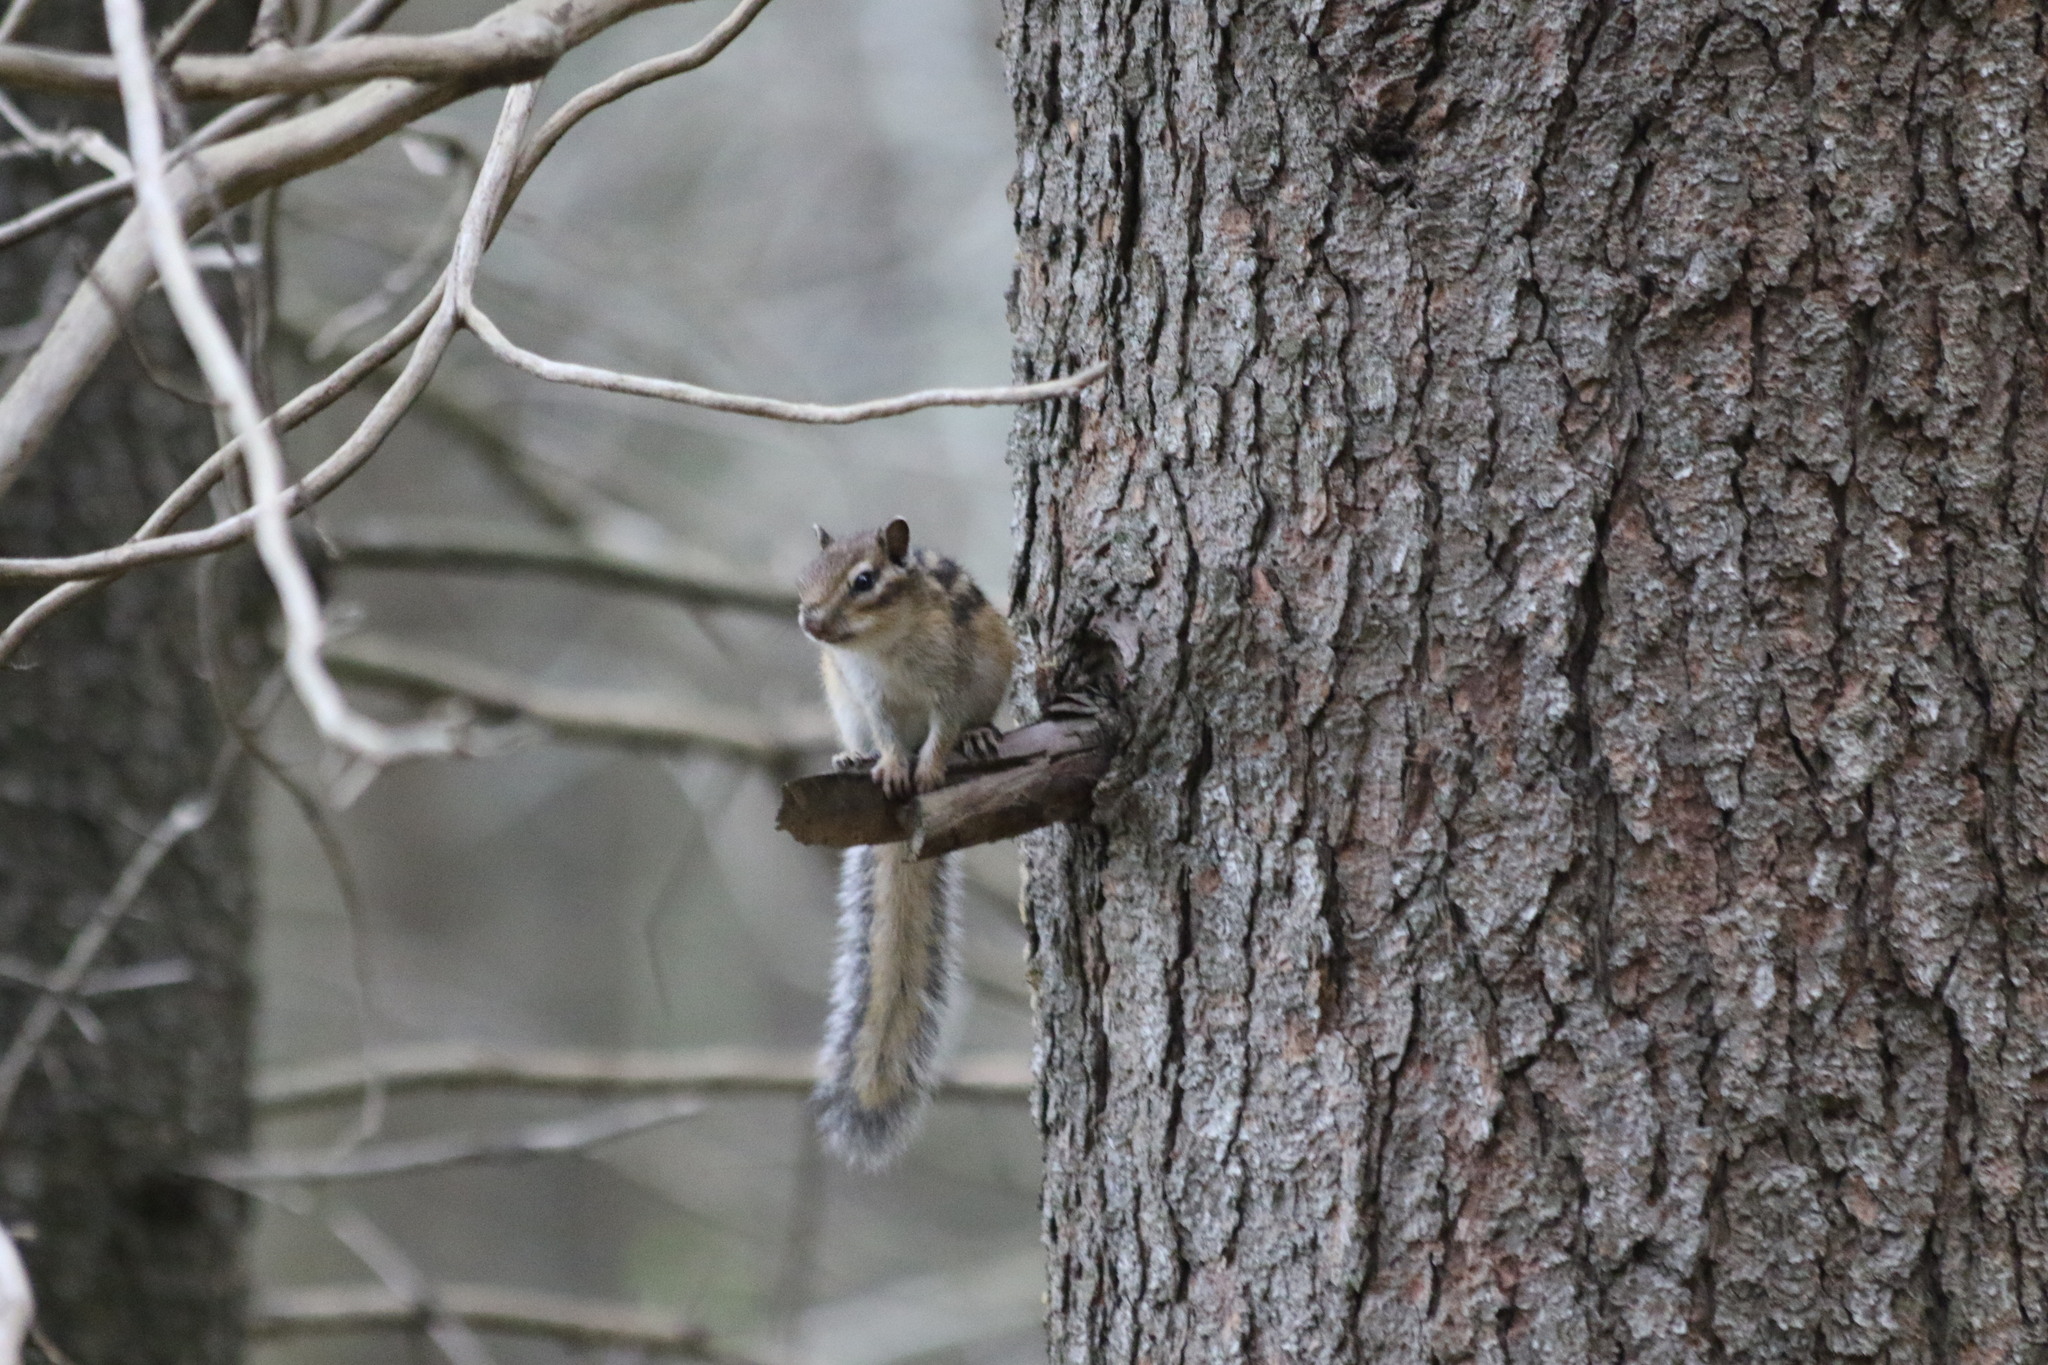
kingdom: Animalia
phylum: Chordata
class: Mammalia
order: Rodentia
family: Sciuridae
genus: Tamias
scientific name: Tamias sibiricus
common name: Siberian chipmunk
